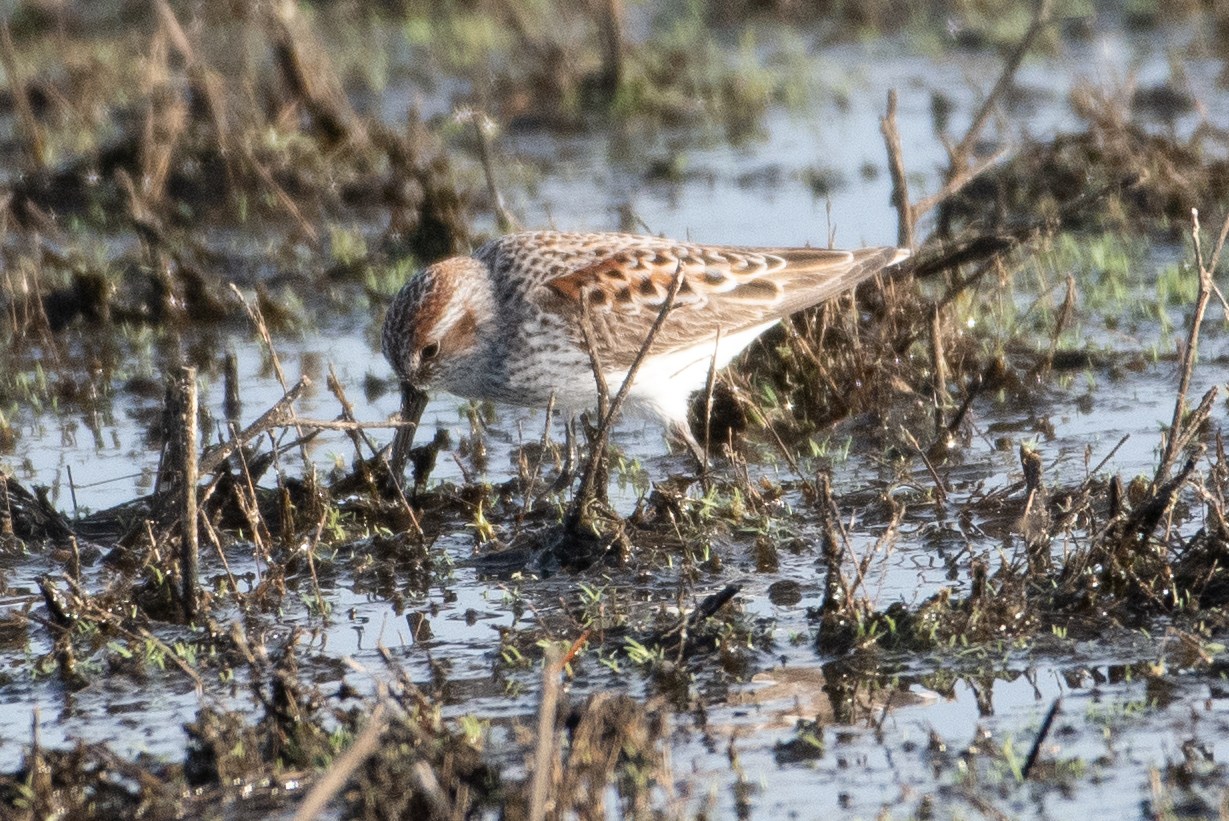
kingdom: Animalia
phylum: Chordata
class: Aves
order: Charadriiformes
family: Scolopacidae
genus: Calidris
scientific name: Calidris mauri
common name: Western sandpiper
